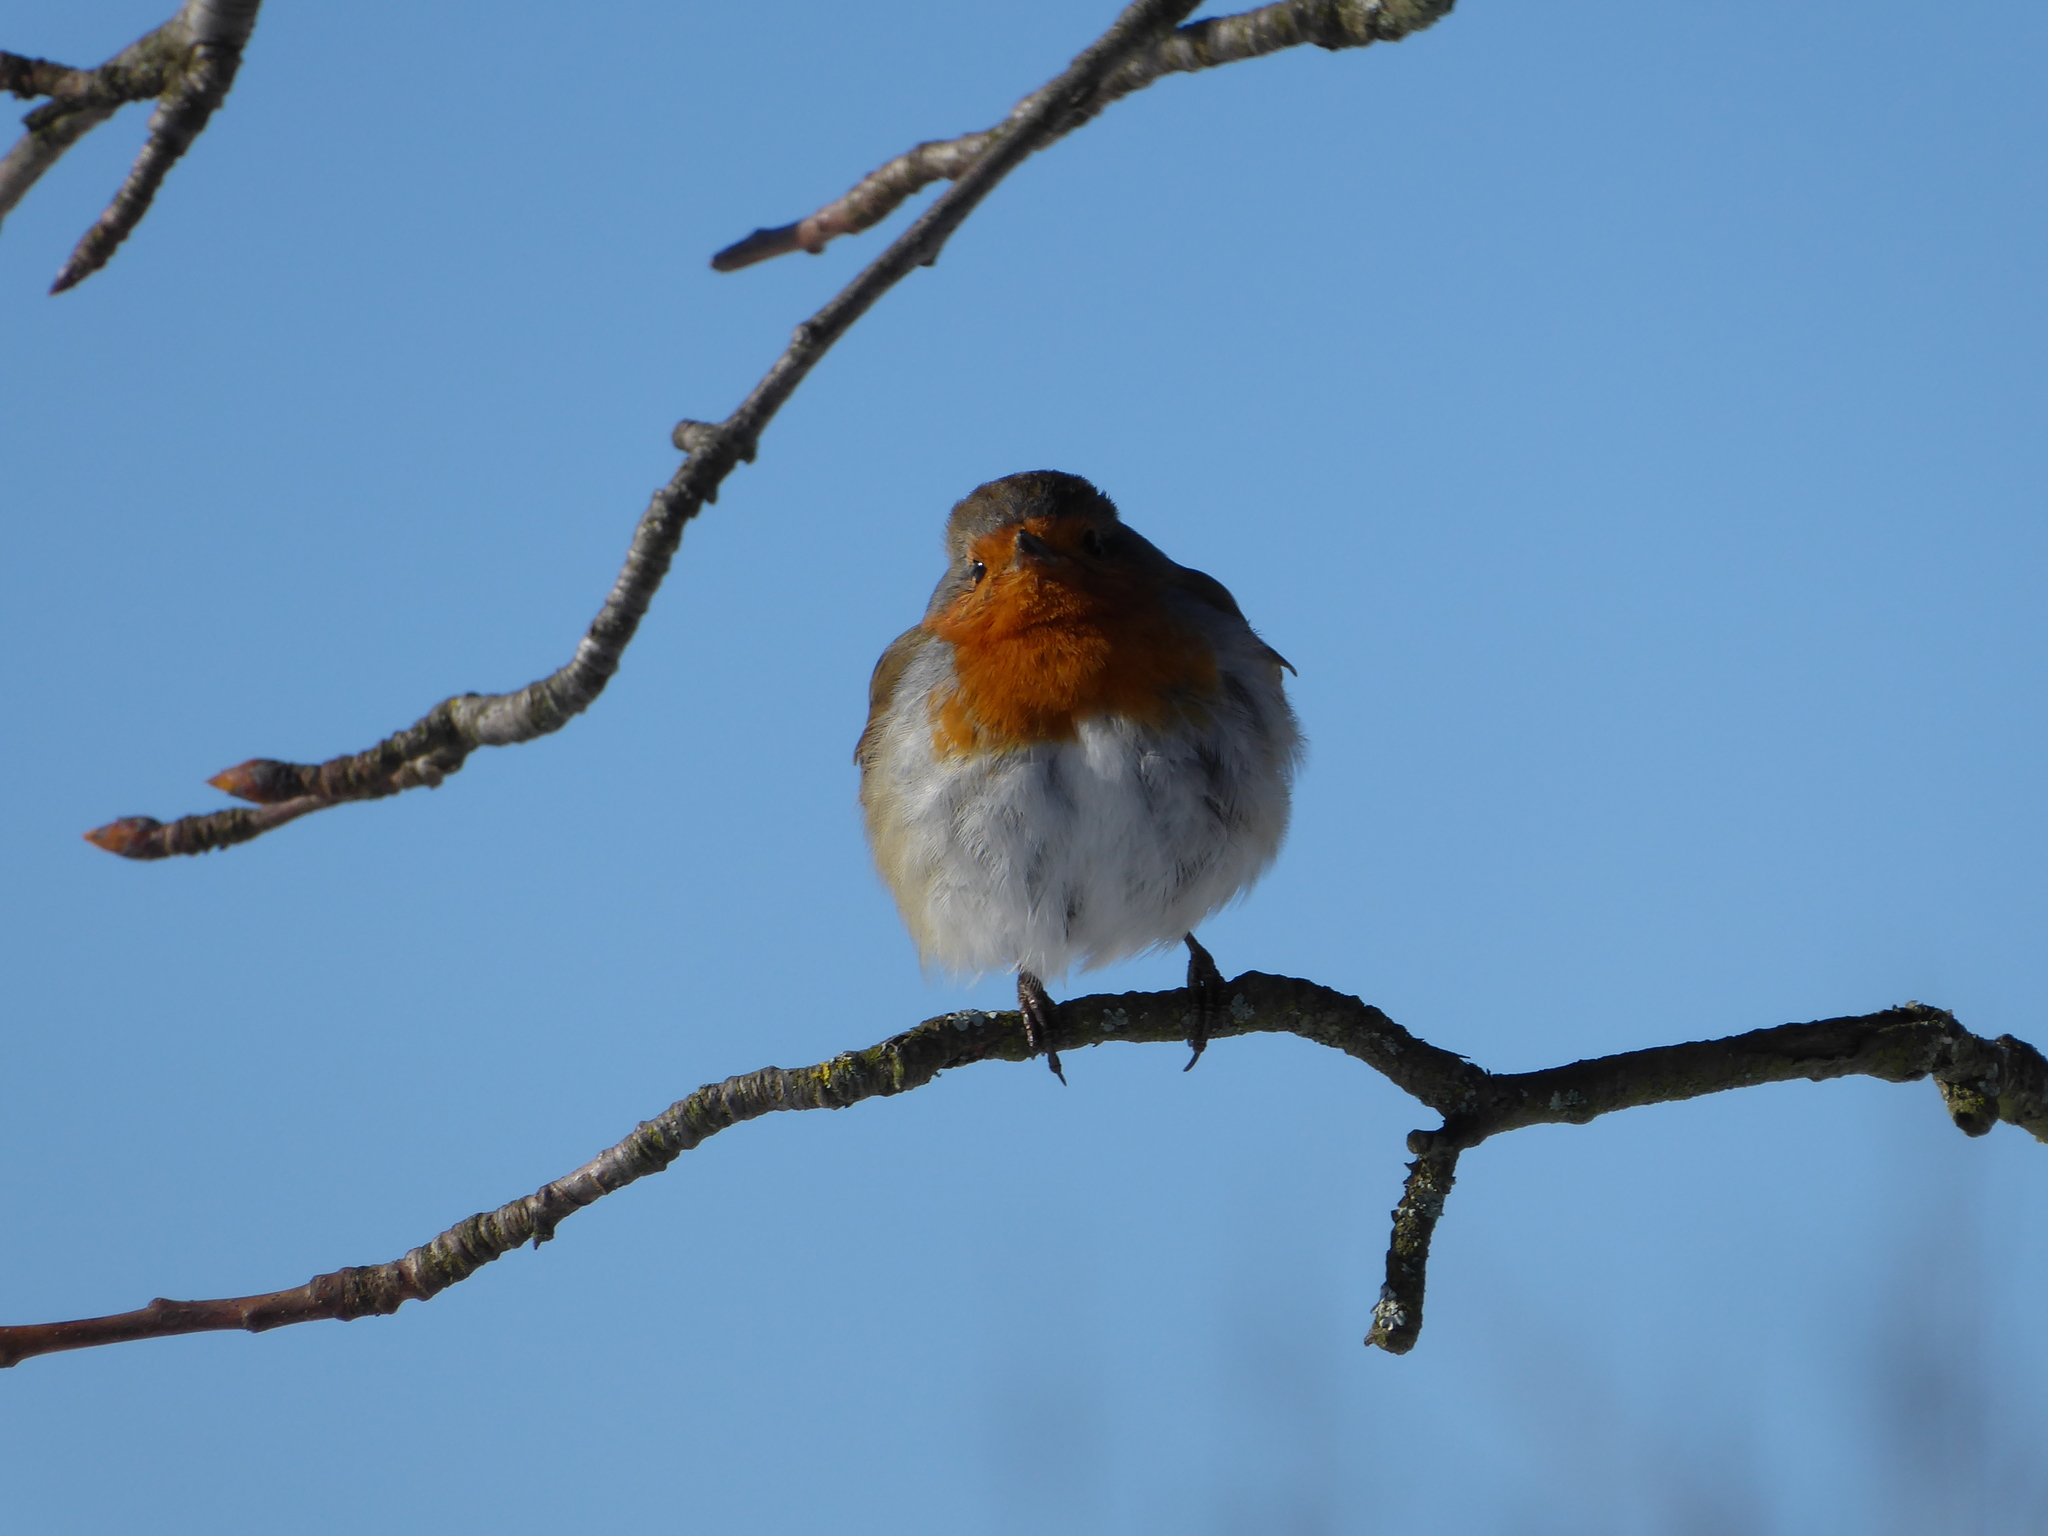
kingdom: Animalia
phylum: Chordata
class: Aves
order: Passeriformes
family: Muscicapidae
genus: Erithacus
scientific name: Erithacus rubecula
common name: European robin
